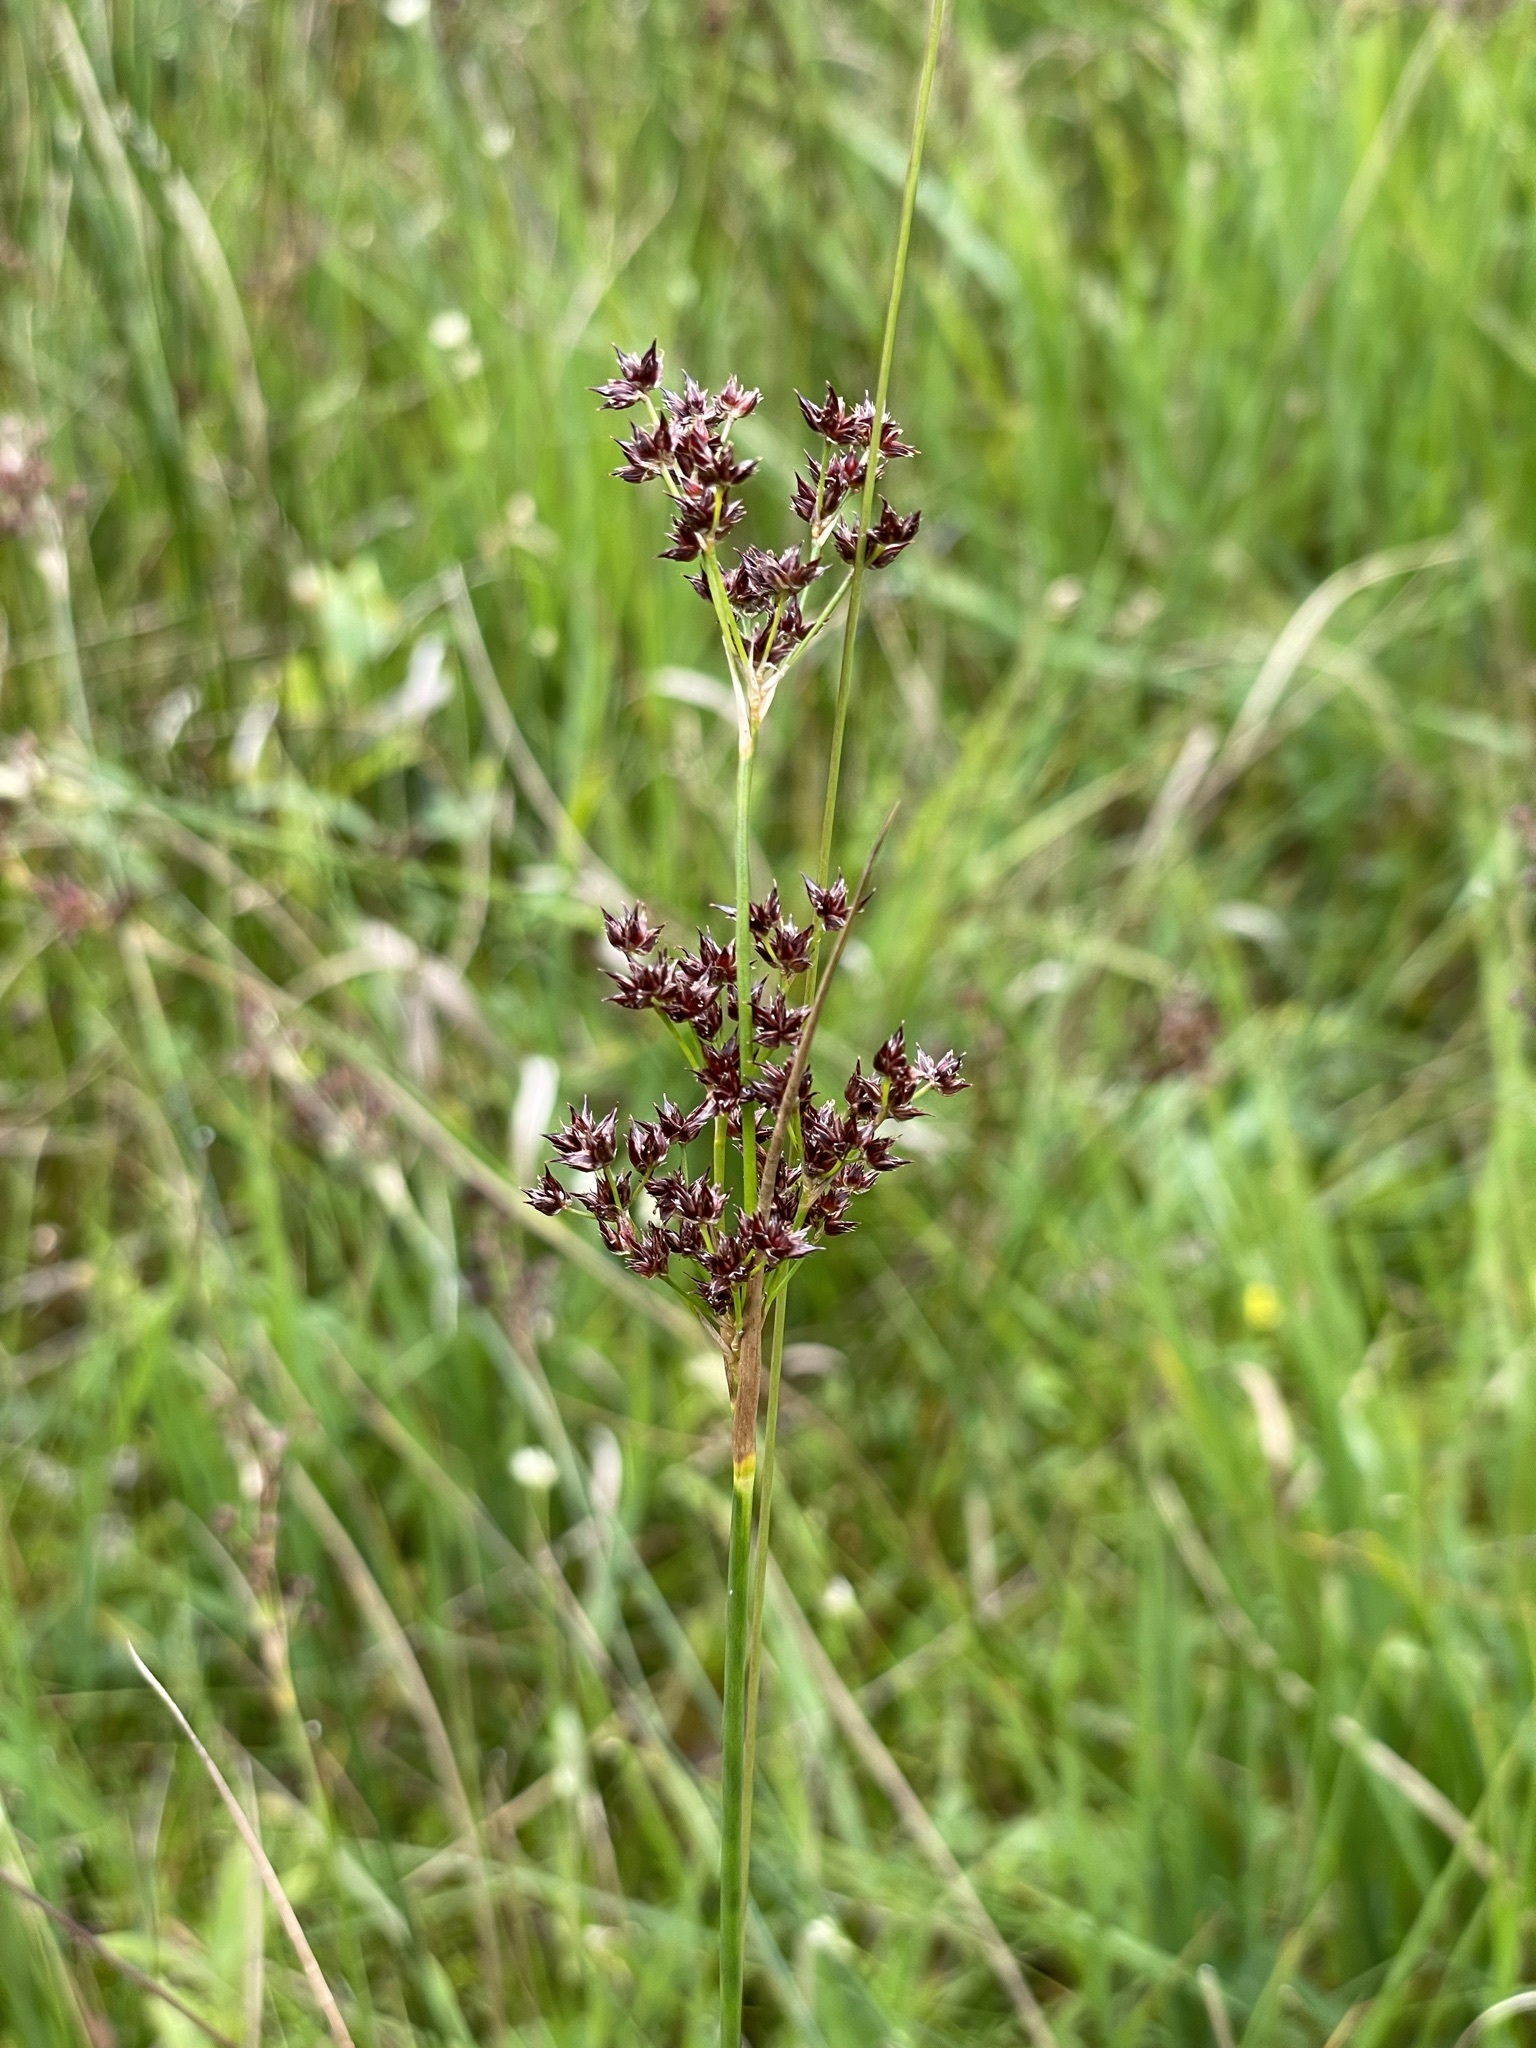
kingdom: Plantae
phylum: Tracheophyta
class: Liliopsida
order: Poales
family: Juncaceae
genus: Juncus
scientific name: Juncus articulatus
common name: Jointed rush
